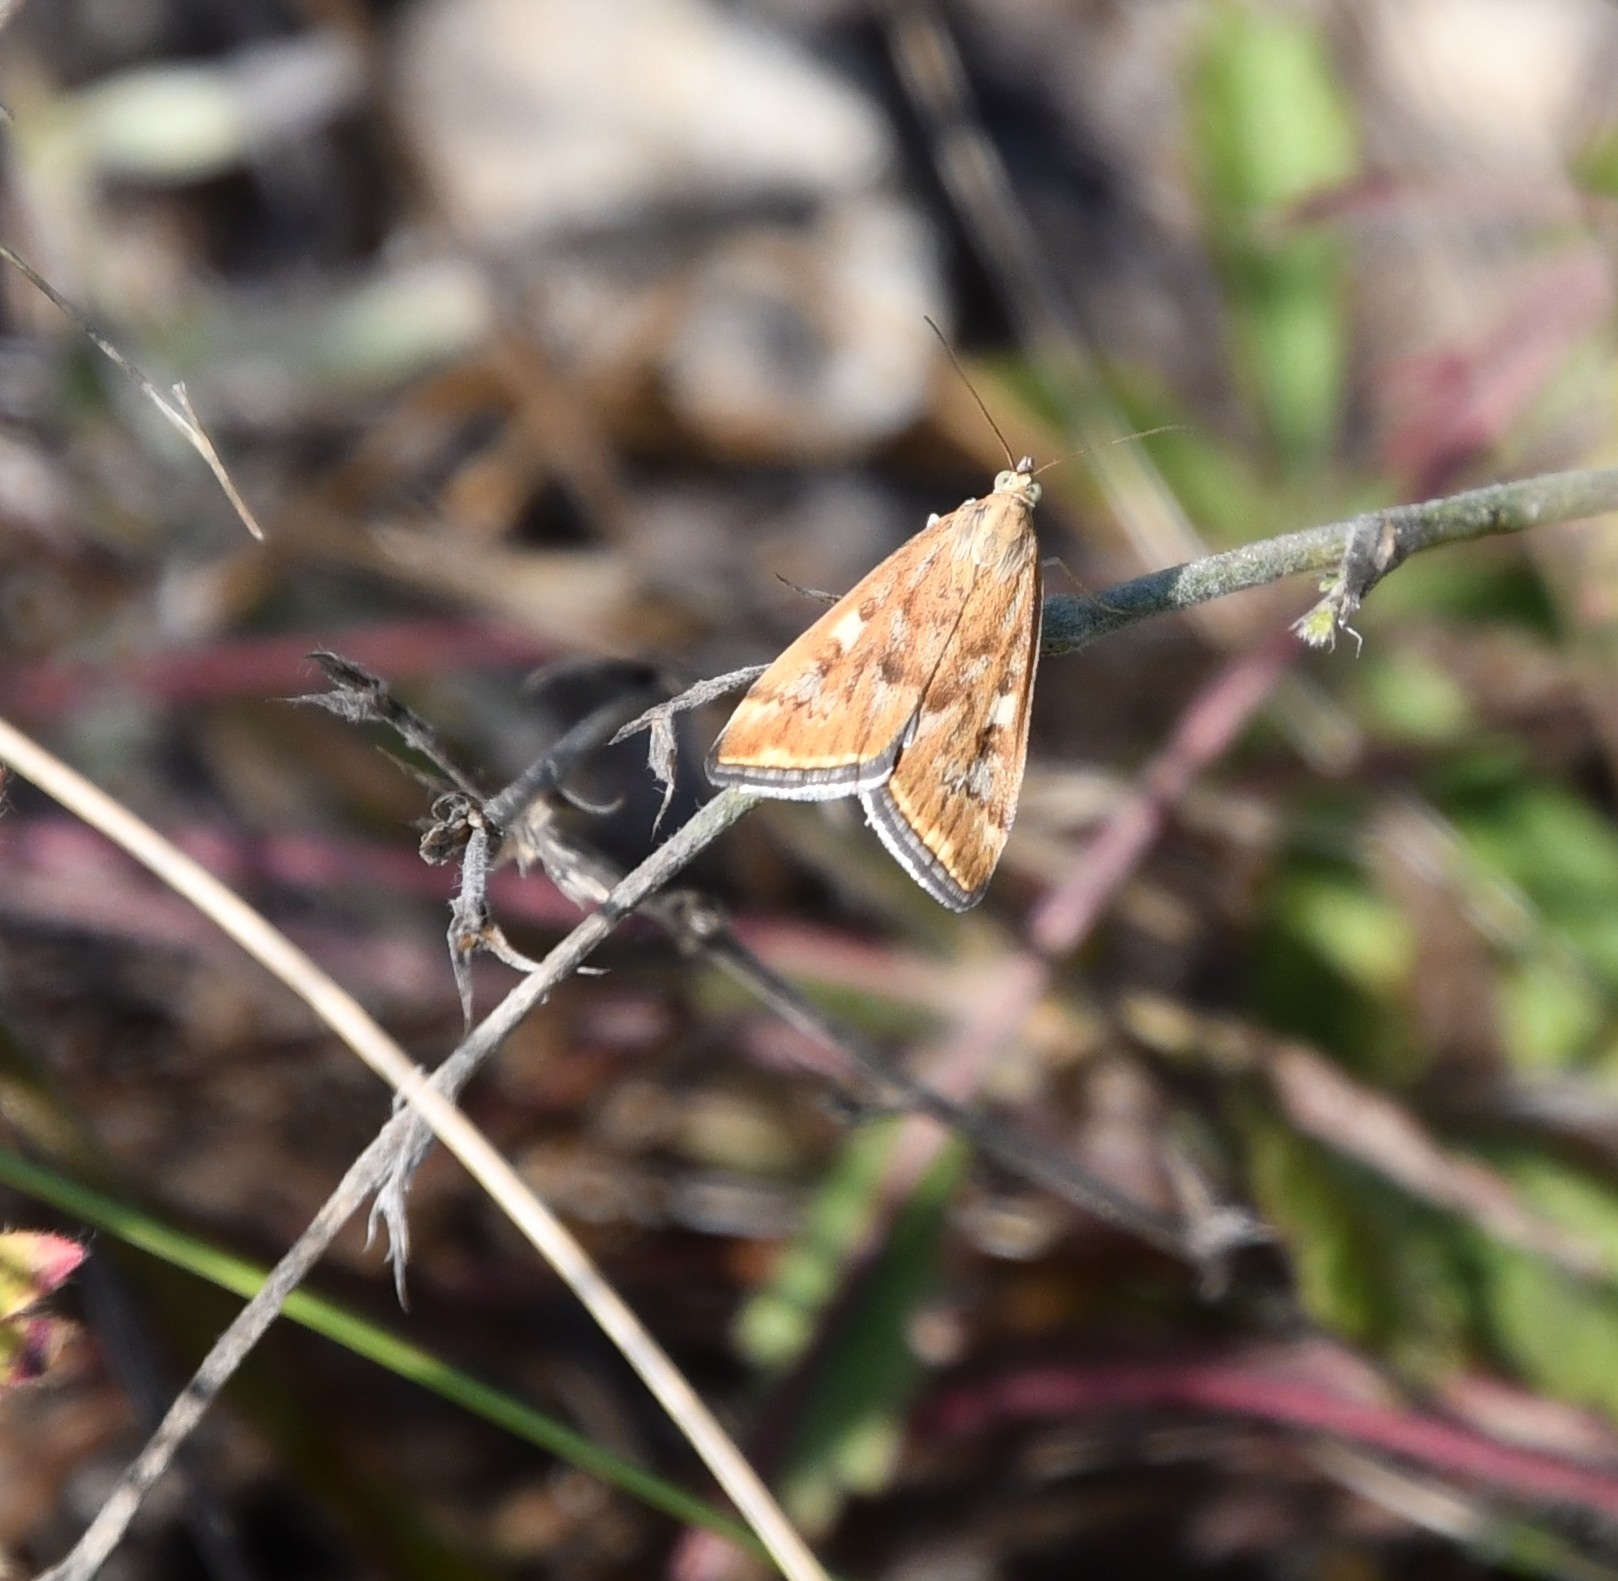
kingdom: Animalia
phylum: Arthropoda
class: Insecta
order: Lepidoptera
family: Crambidae
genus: Loxostege
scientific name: Loxostege sticticalis
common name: Crambid moth
